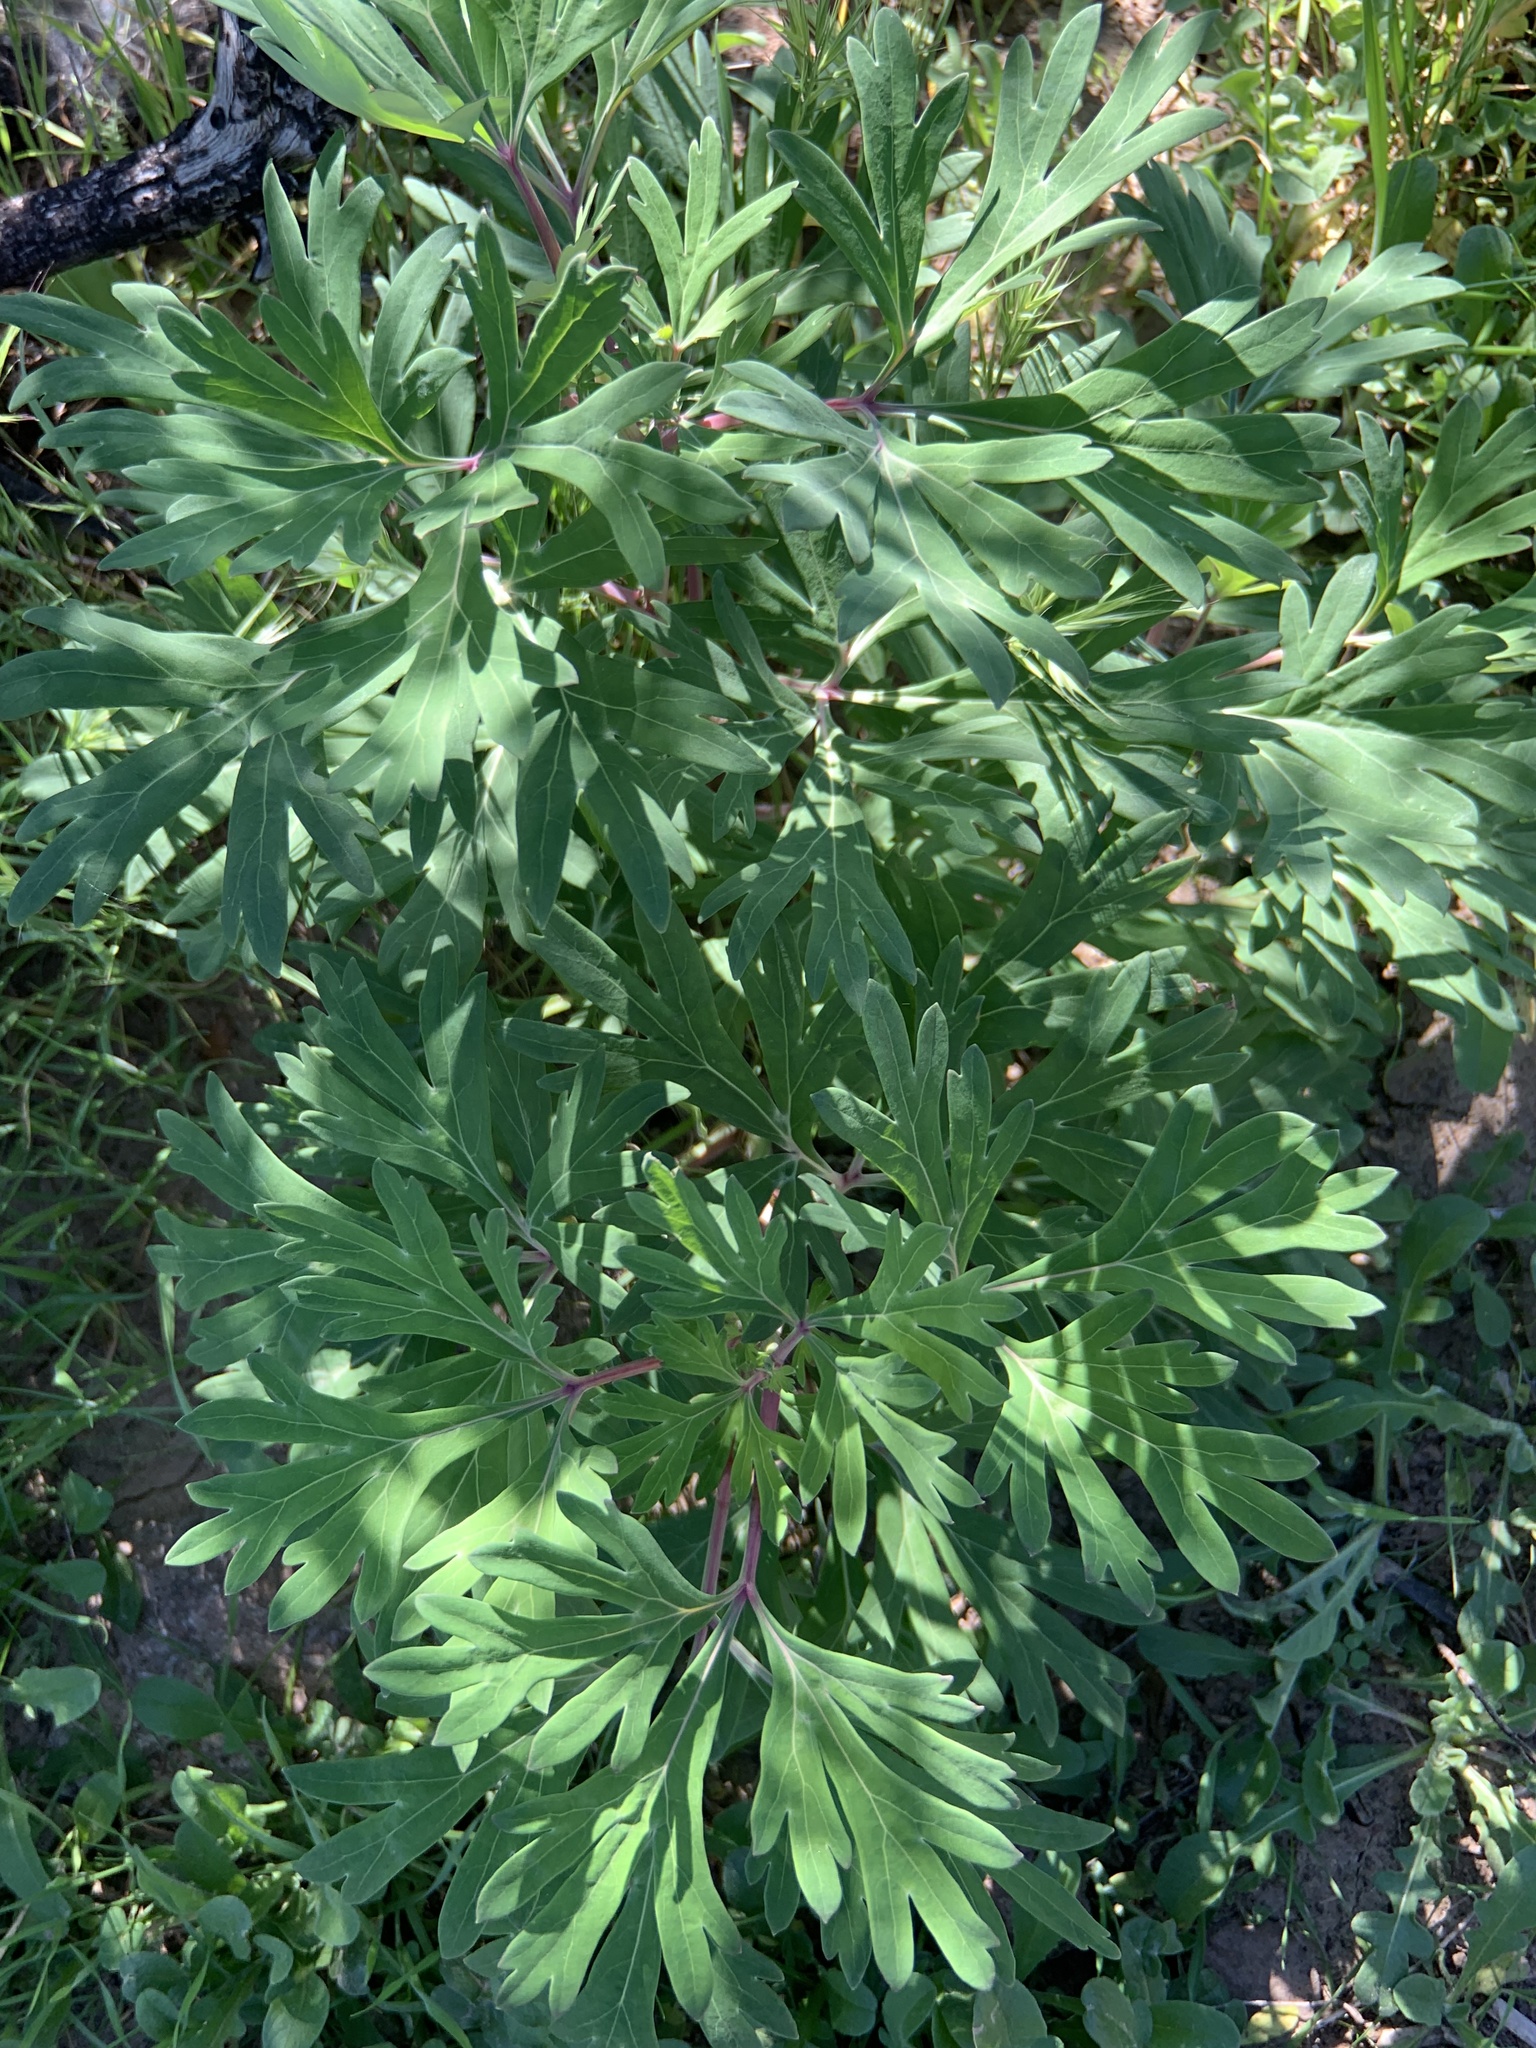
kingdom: Plantae
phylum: Tracheophyta
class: Magnoliopsida
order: Saxifragales
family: Paeoniaceae
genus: Paeonia
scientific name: Paeonia californica
